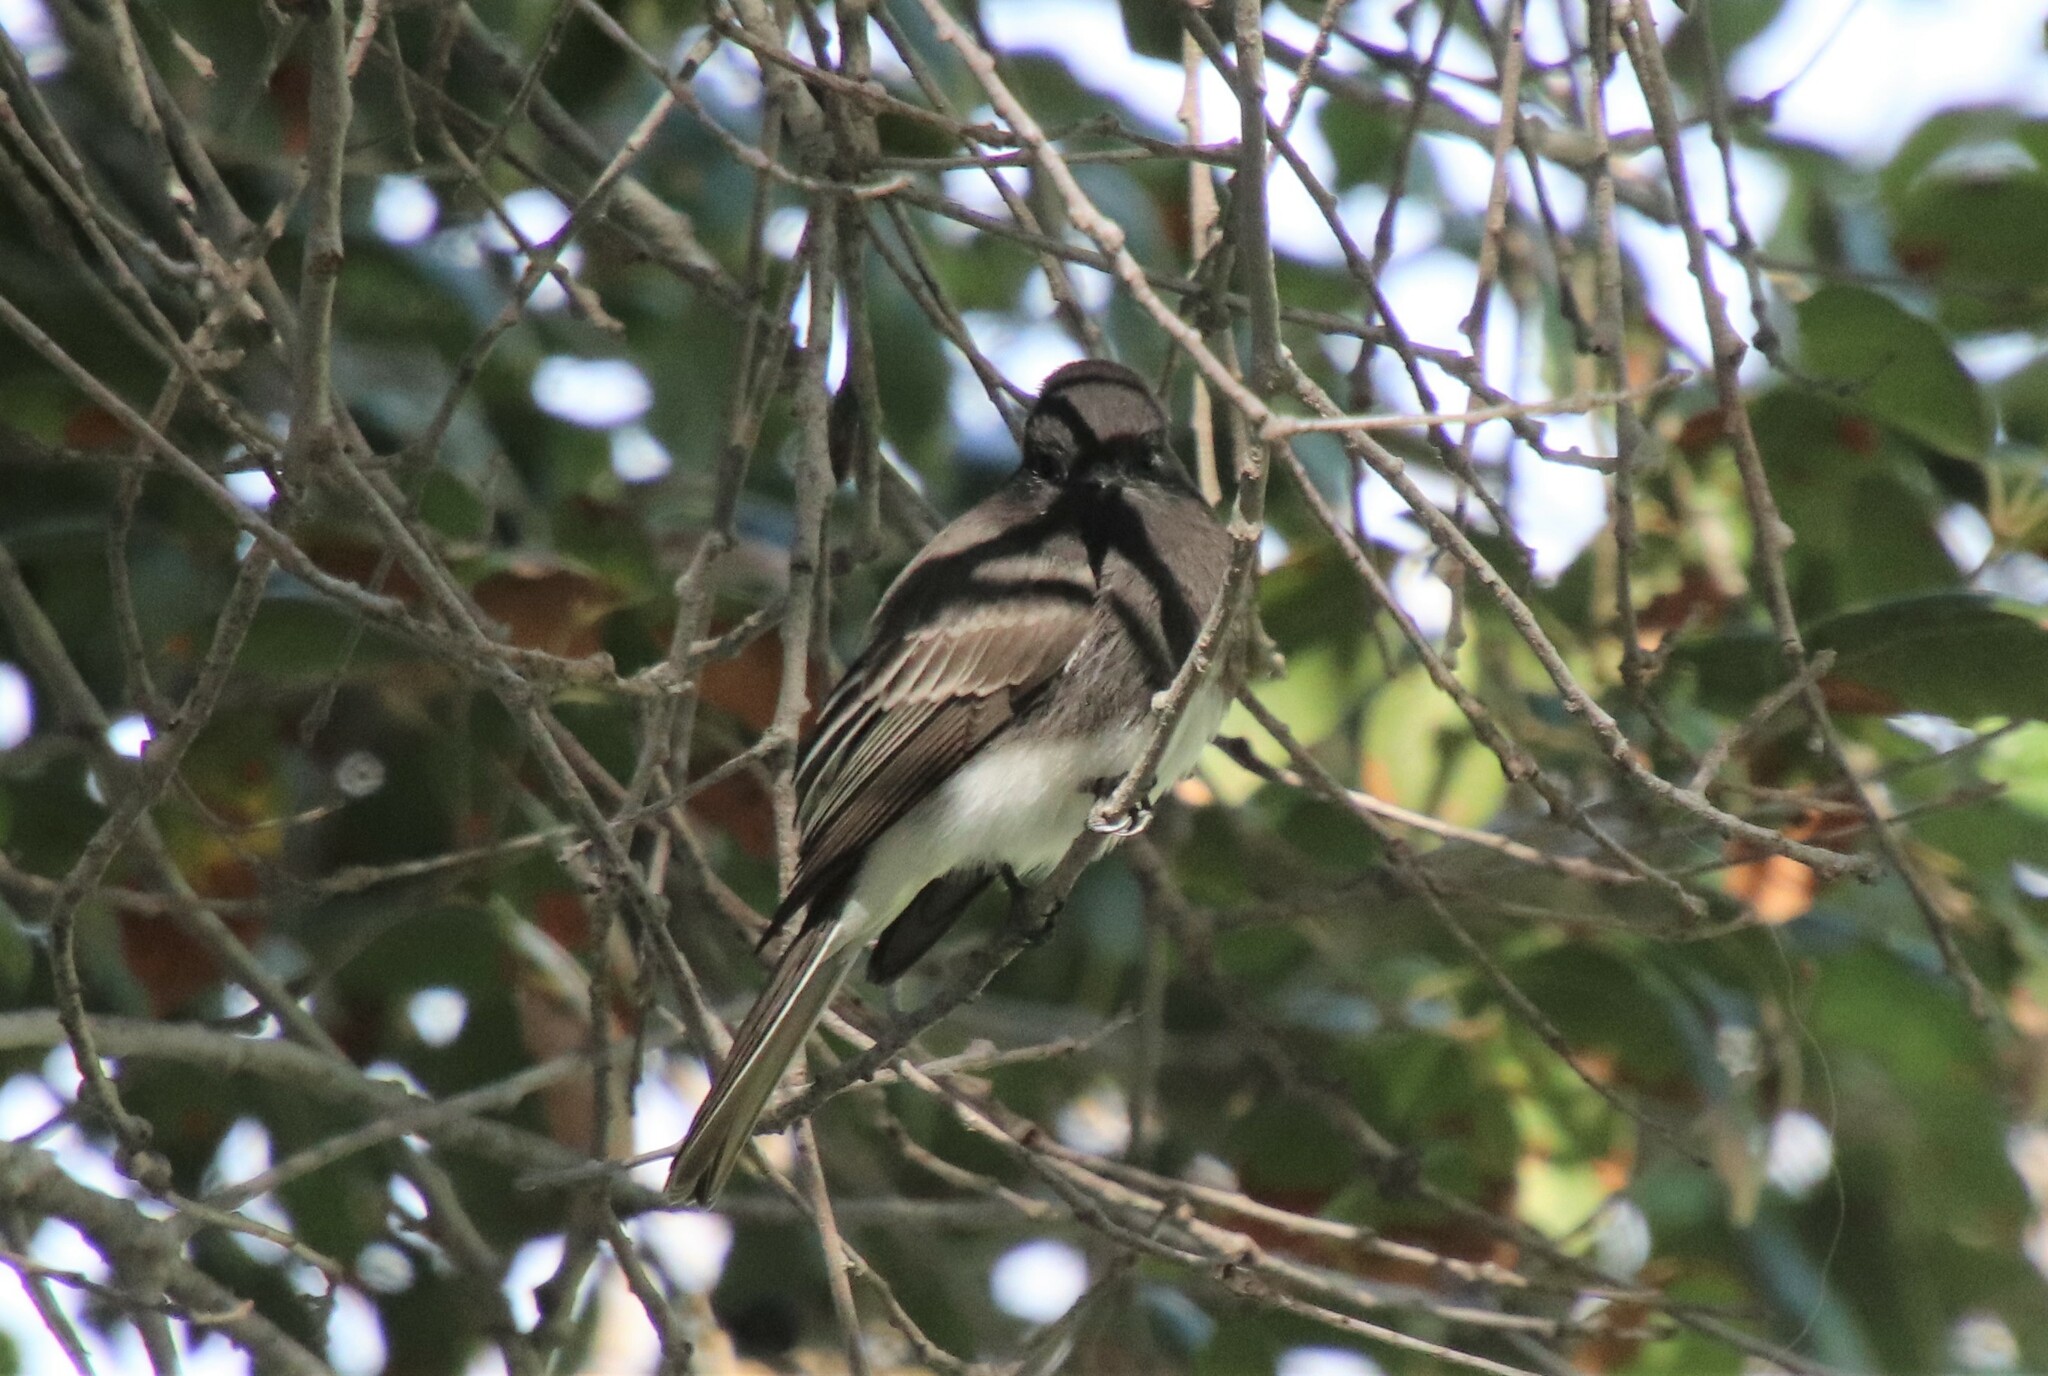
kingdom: Animalia
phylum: Chordata
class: Aves
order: Passeriformes
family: Tyrannidae
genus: Sayornis
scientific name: Sayornis nigricans
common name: Black phoebe
